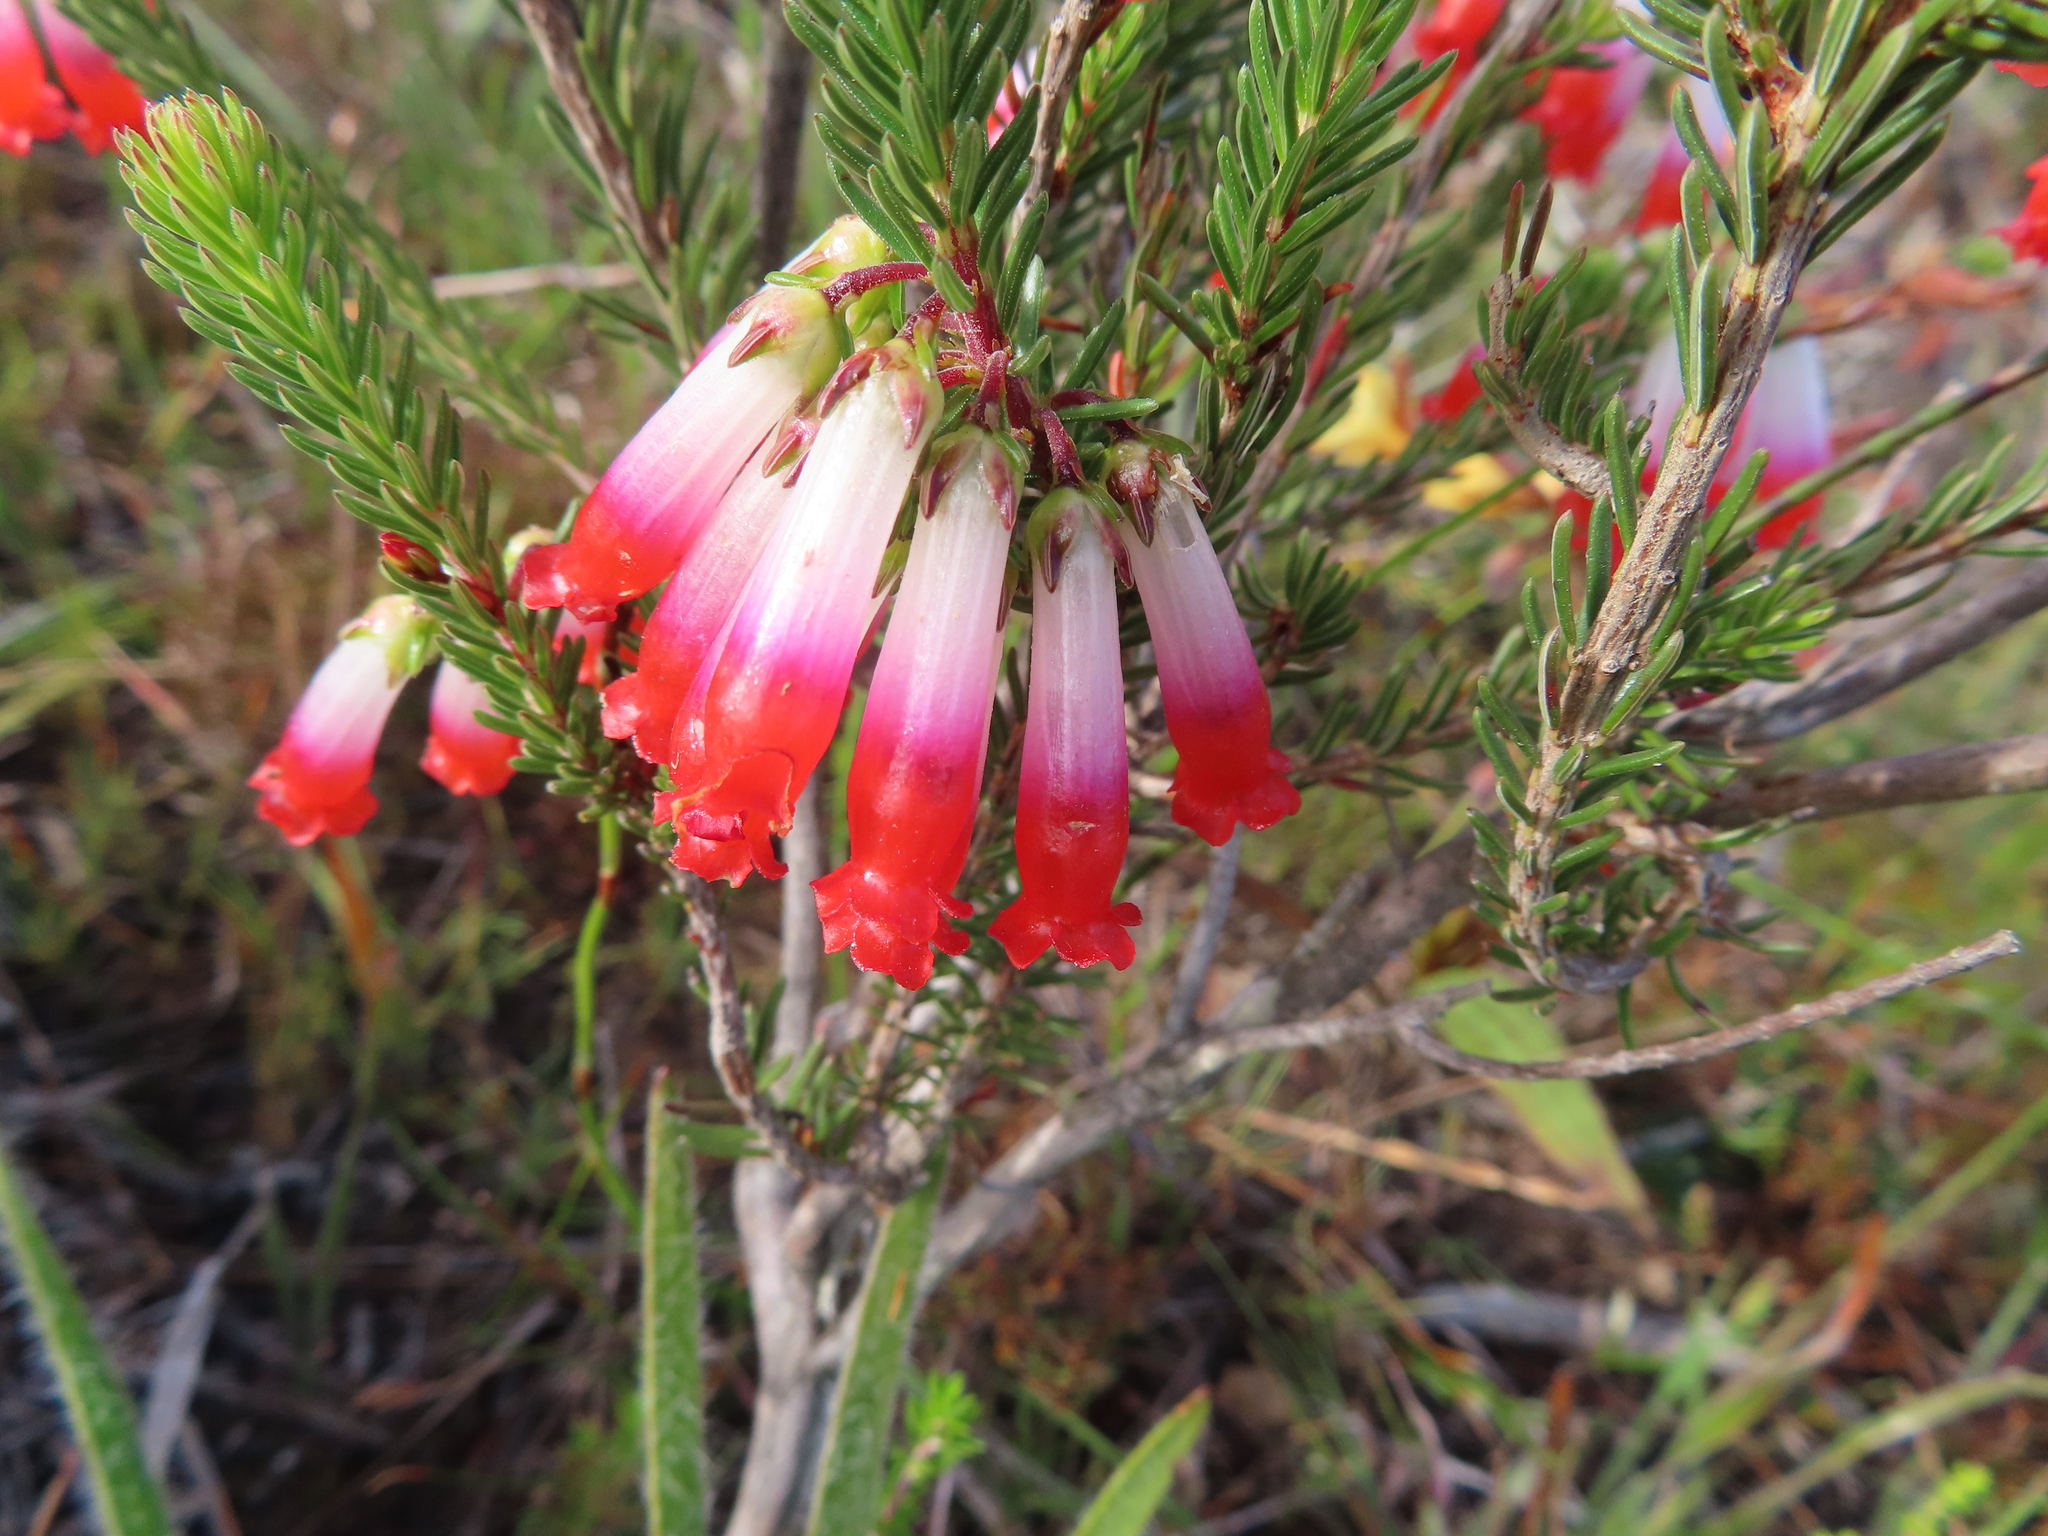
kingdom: Plantae
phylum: Tracheophyta
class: Magnoliopsida
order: Ericales
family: Ericaceae
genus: Erica
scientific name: Erica regia
